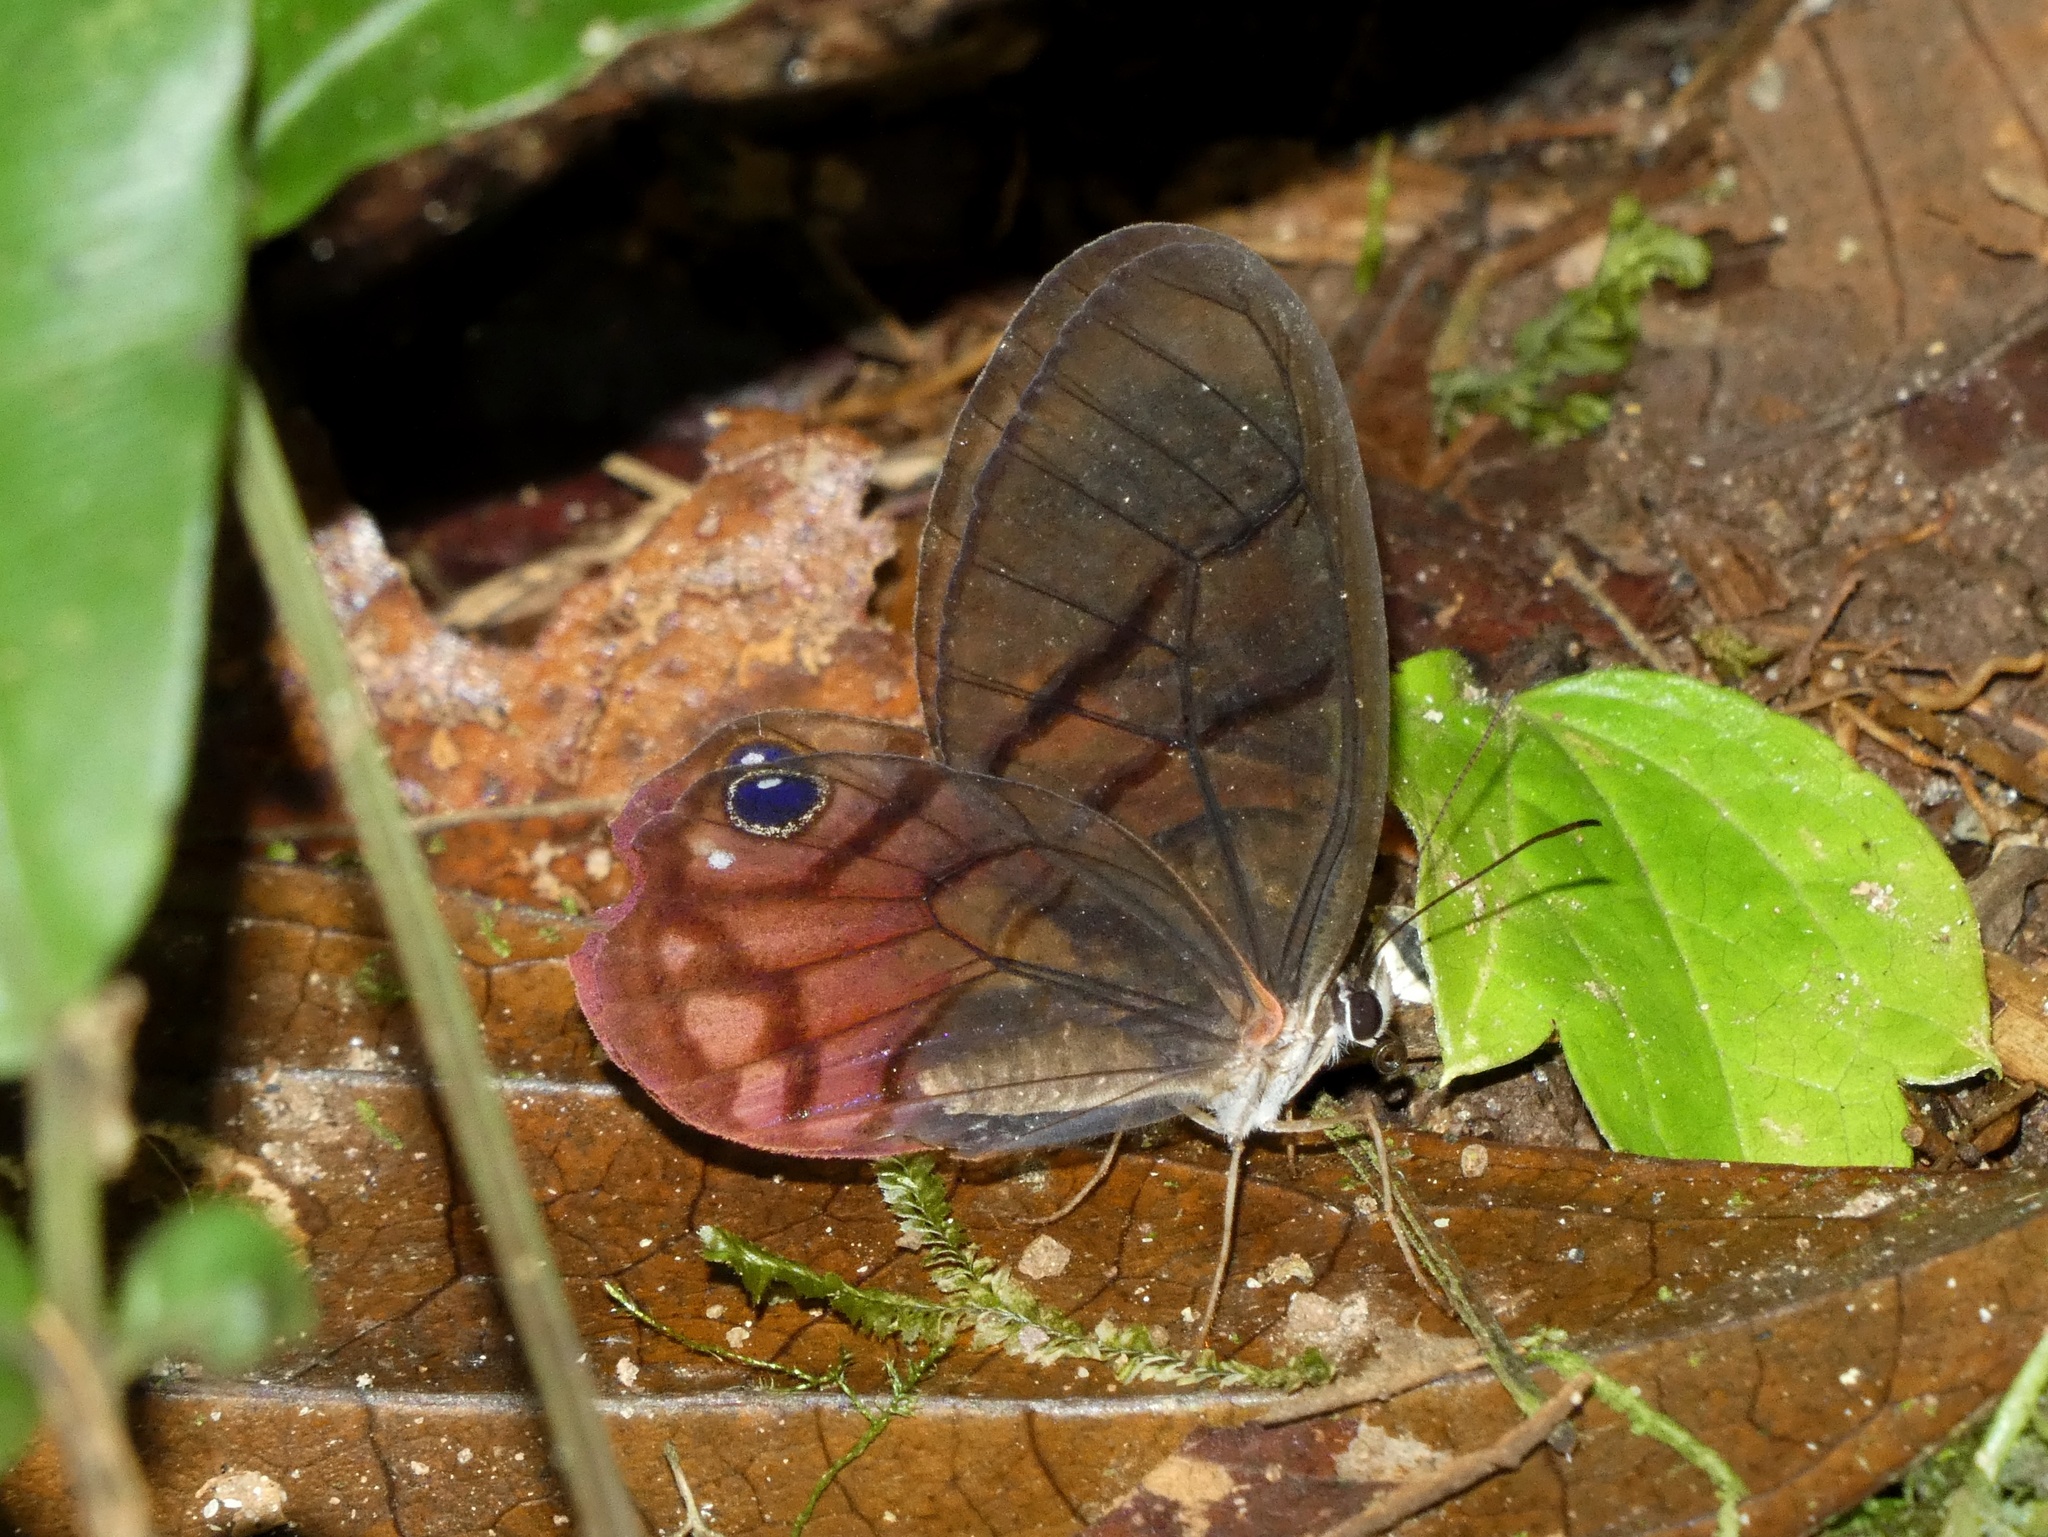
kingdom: Animalia
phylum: Arthropoda
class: Insecta
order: Lepidoptera
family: Nymphalidae
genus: Cithaerias
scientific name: Cithaerias pireta
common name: Rusted clearwing-satyr
